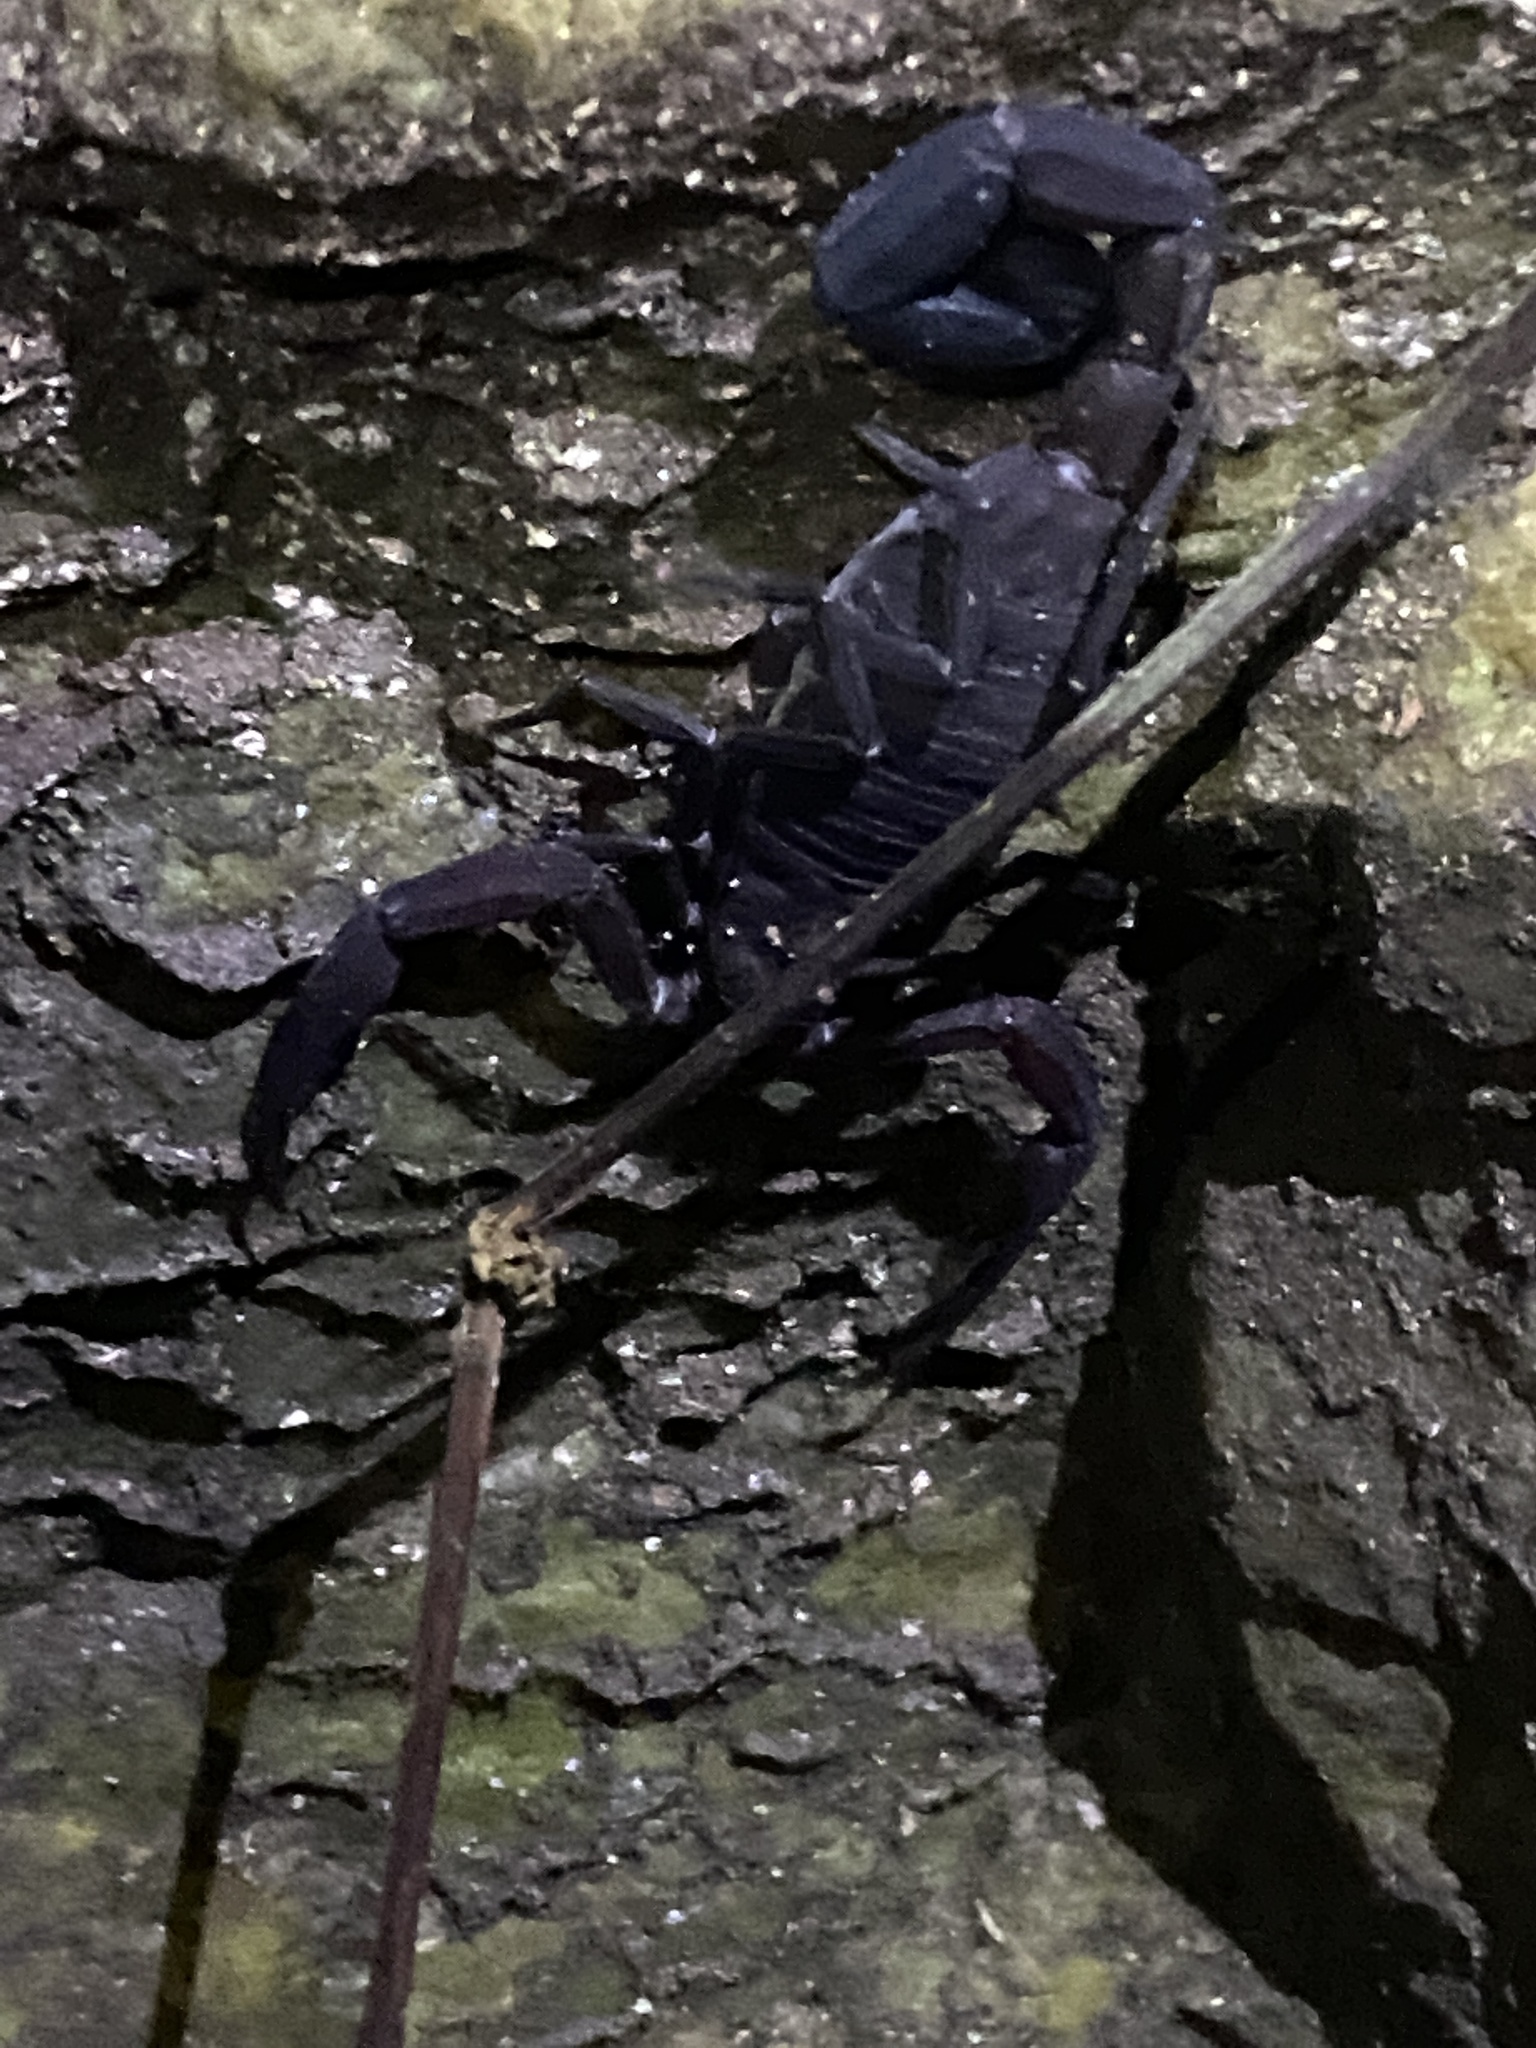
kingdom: Animalia
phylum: Arthropoda
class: Arachnida
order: Scorpiones
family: Buthidae
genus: Tityus
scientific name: Tityus trinitatis
